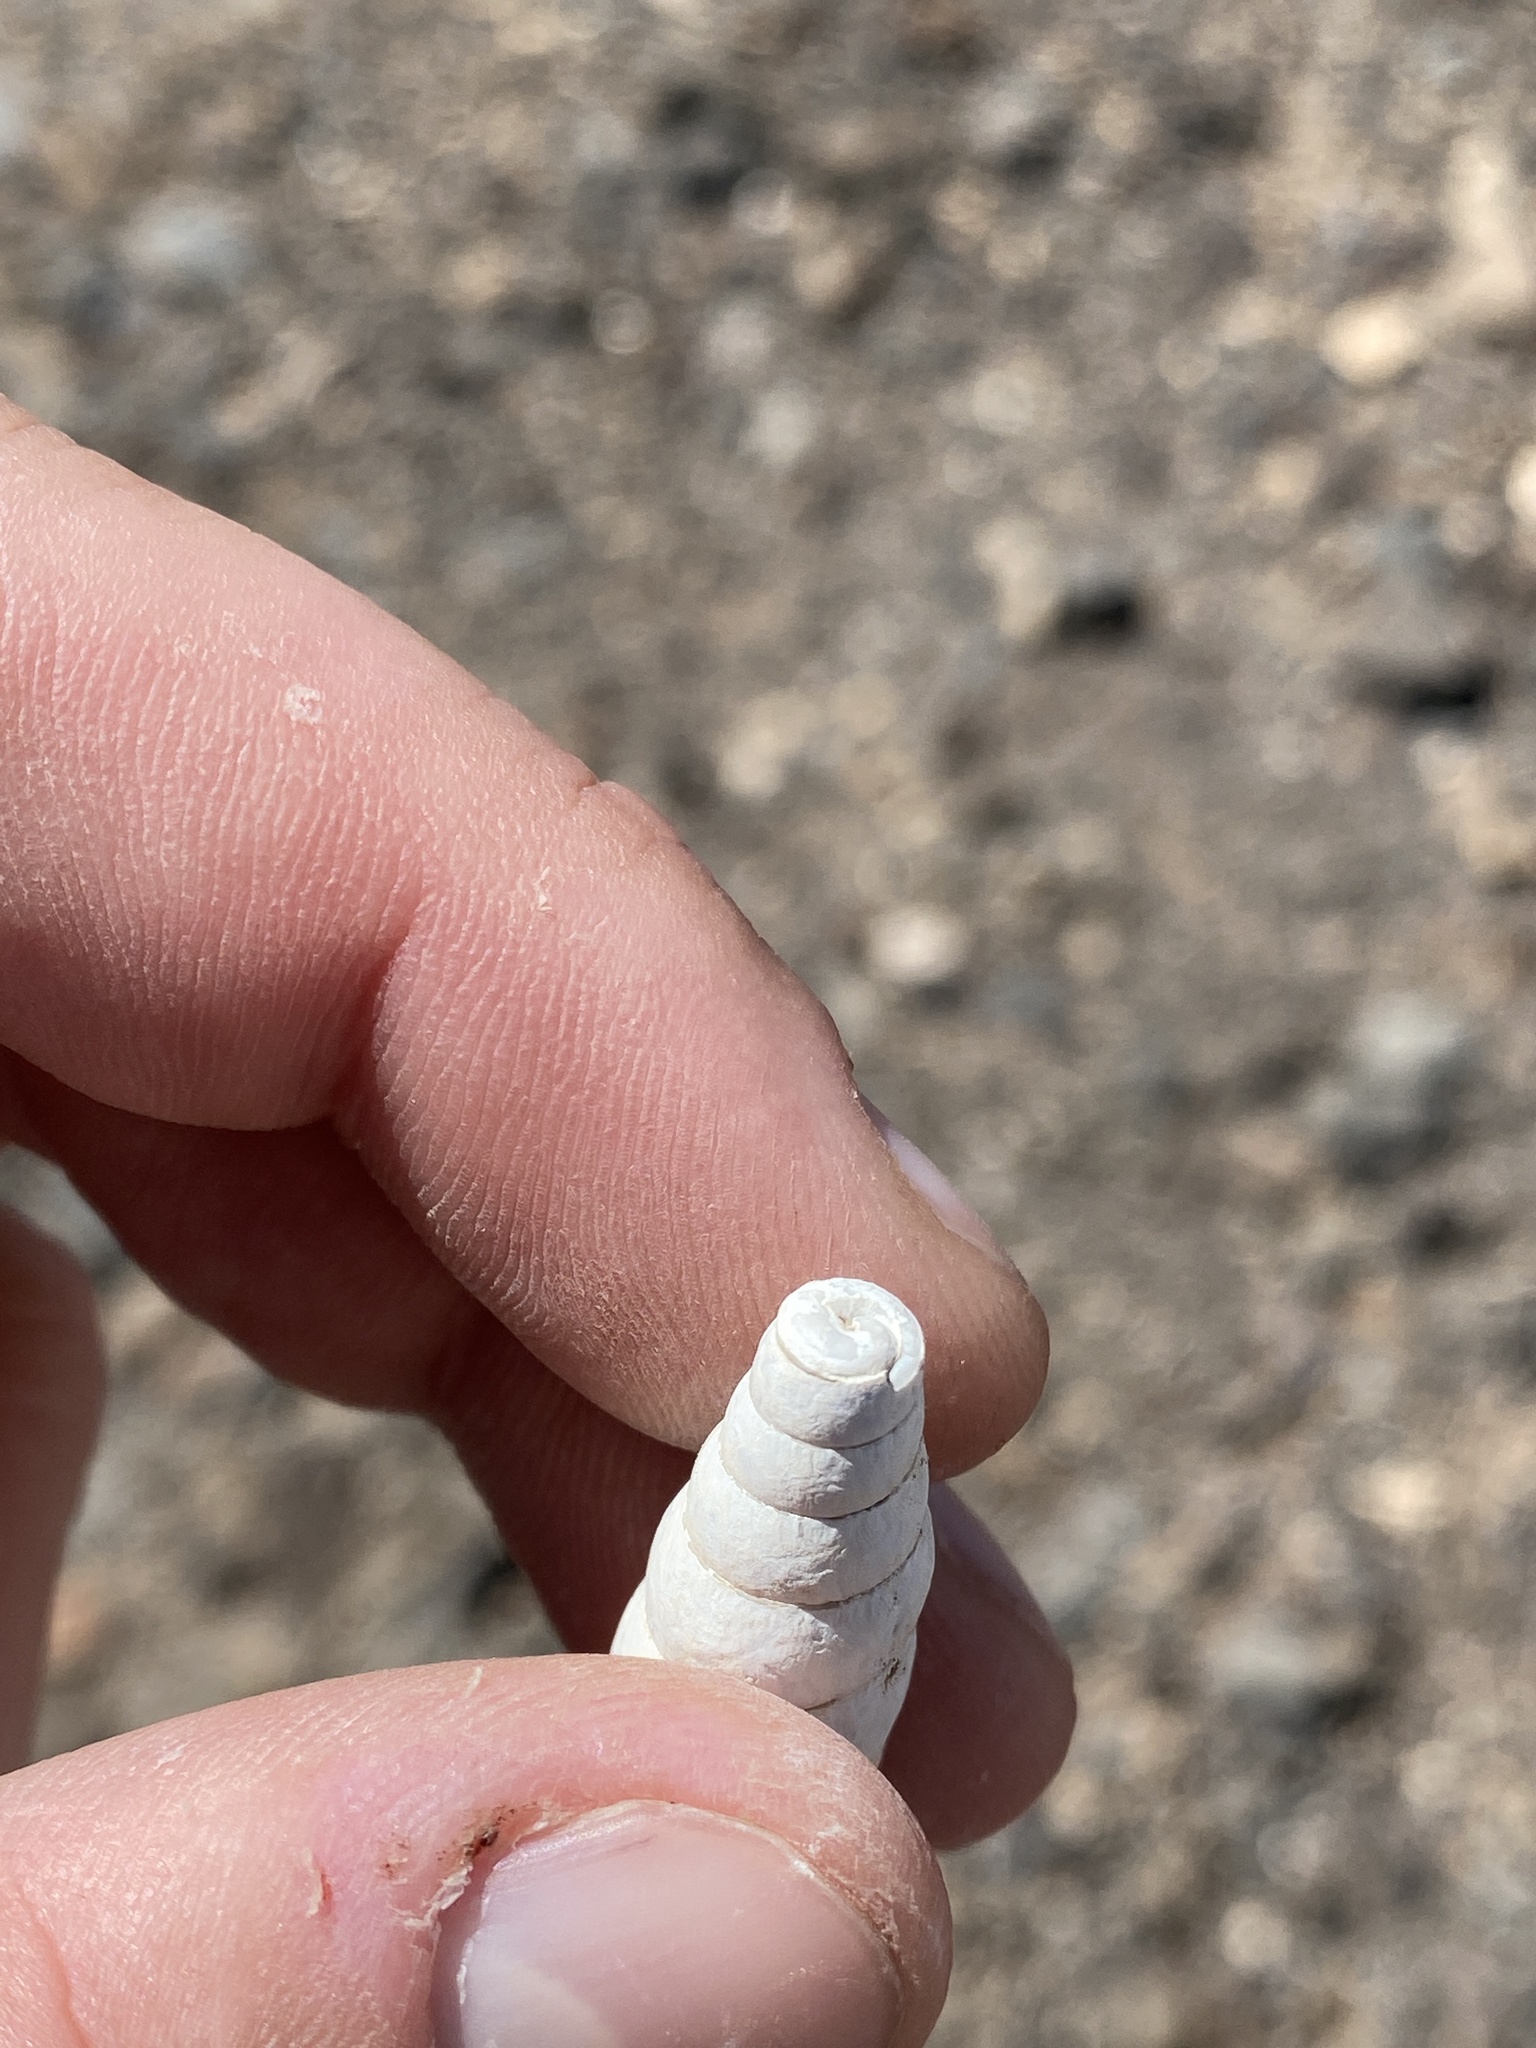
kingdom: Animalia
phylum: Mollusca
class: Gastropoda
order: Stylommatophora
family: Achatinidae
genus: Rumina
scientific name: Rumina decollata
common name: Decollate snail
